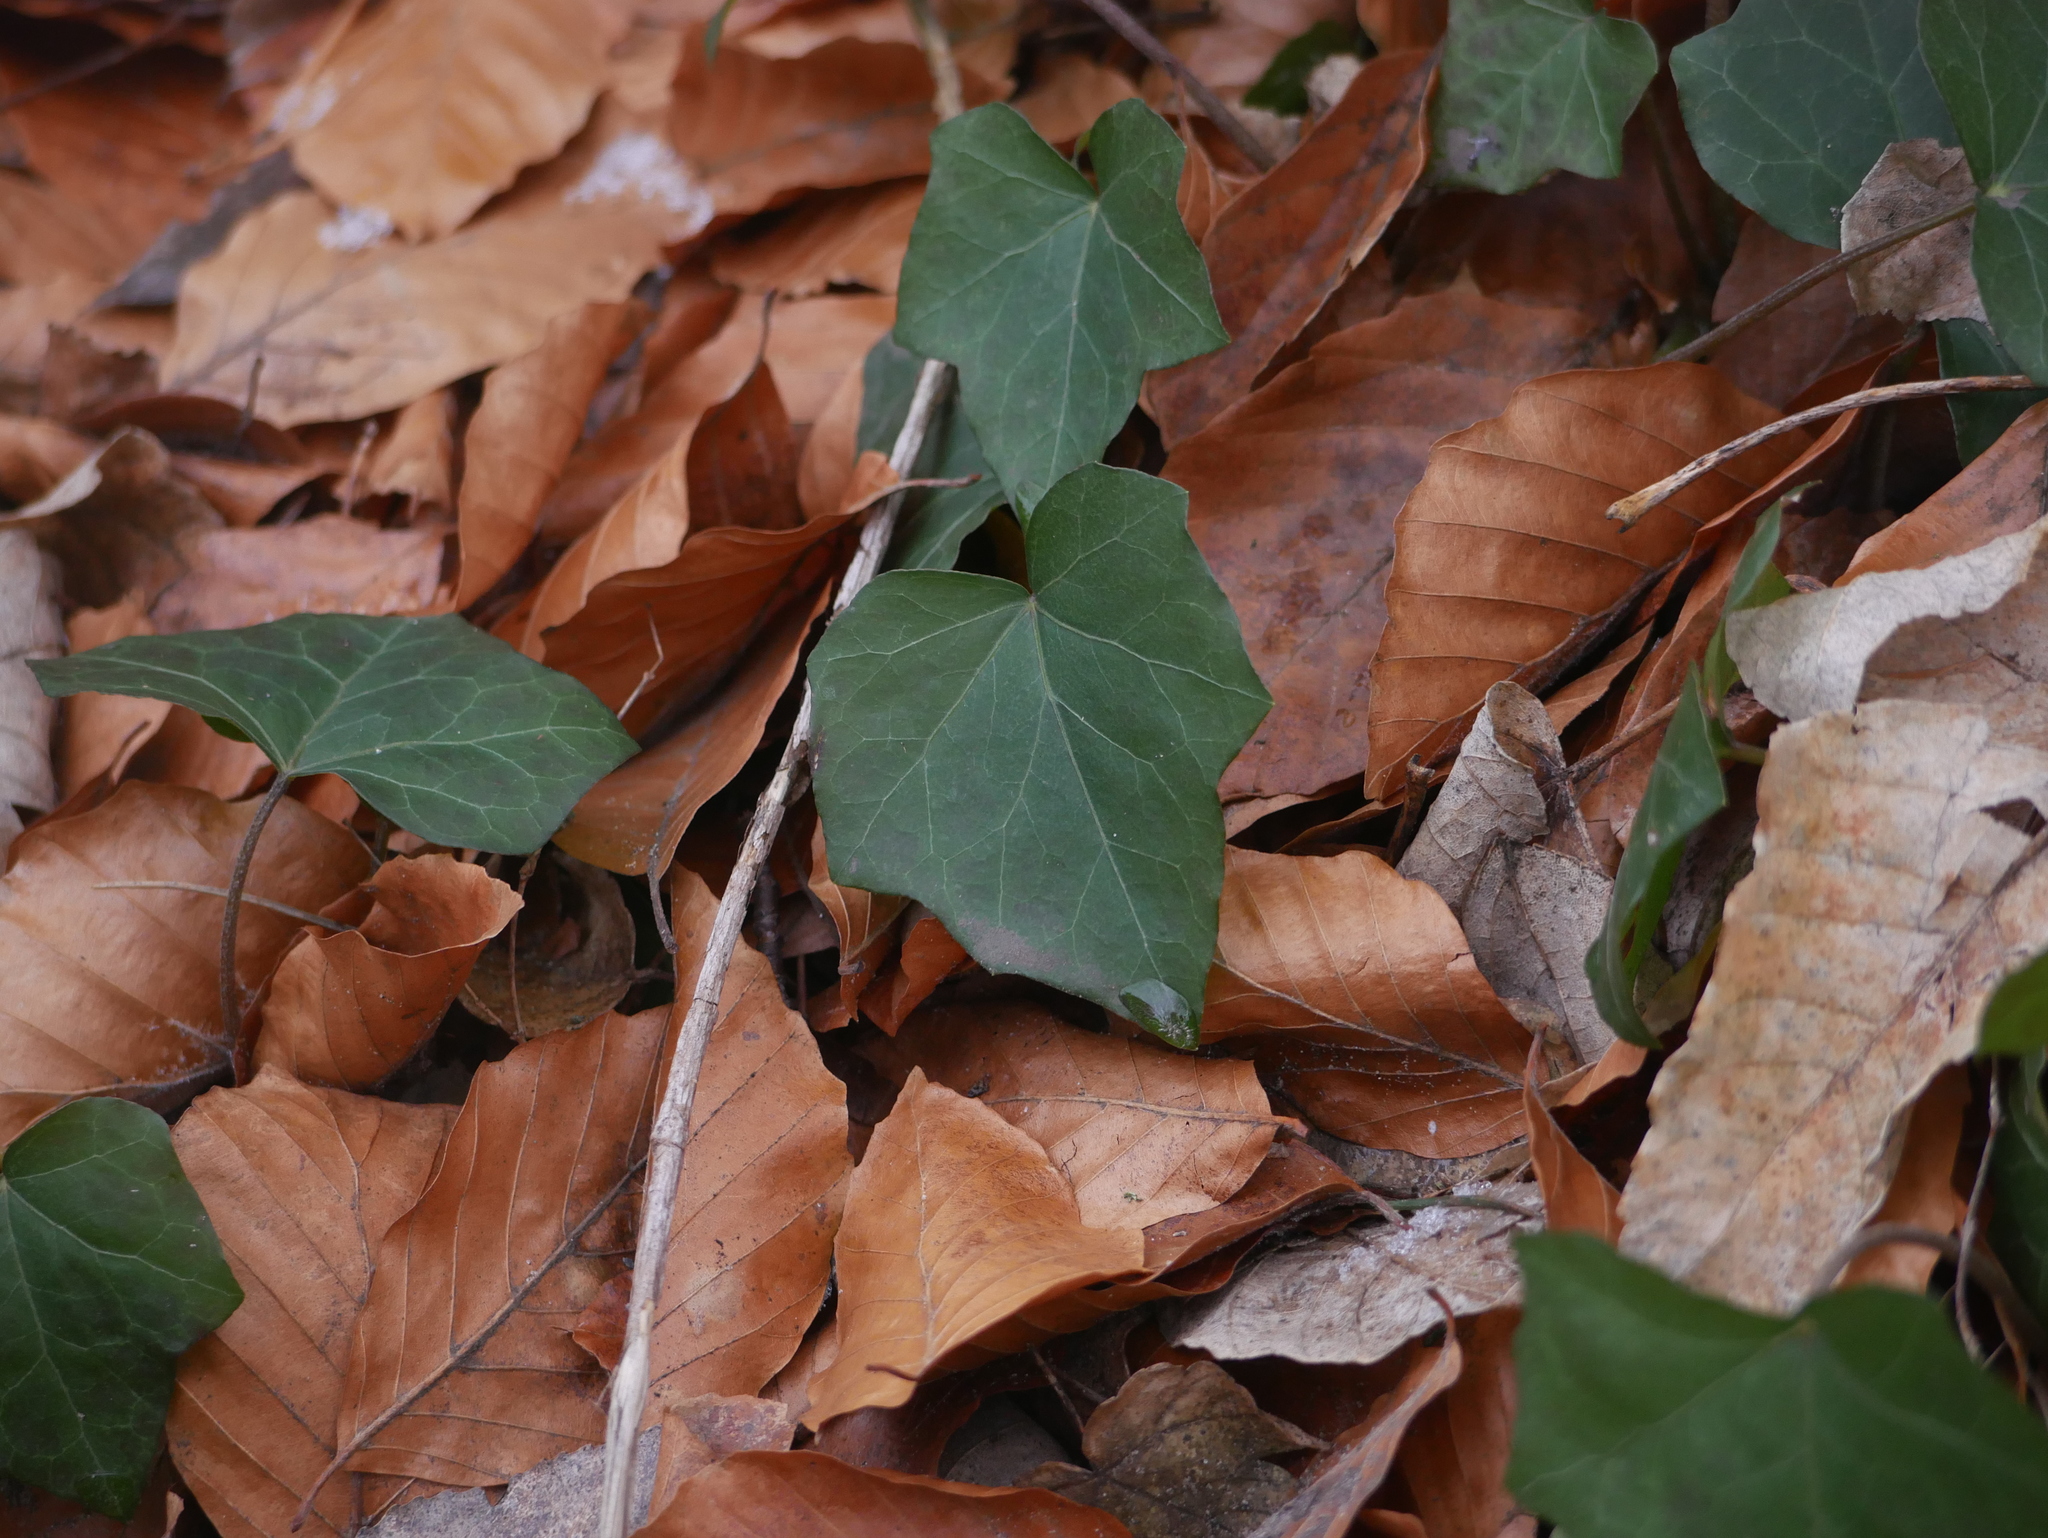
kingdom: Plantae
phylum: Tracheophyta
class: Magnoliopsida
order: Apiales
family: Araliaceae
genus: Hedera
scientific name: Hedera helix
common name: Ivy
